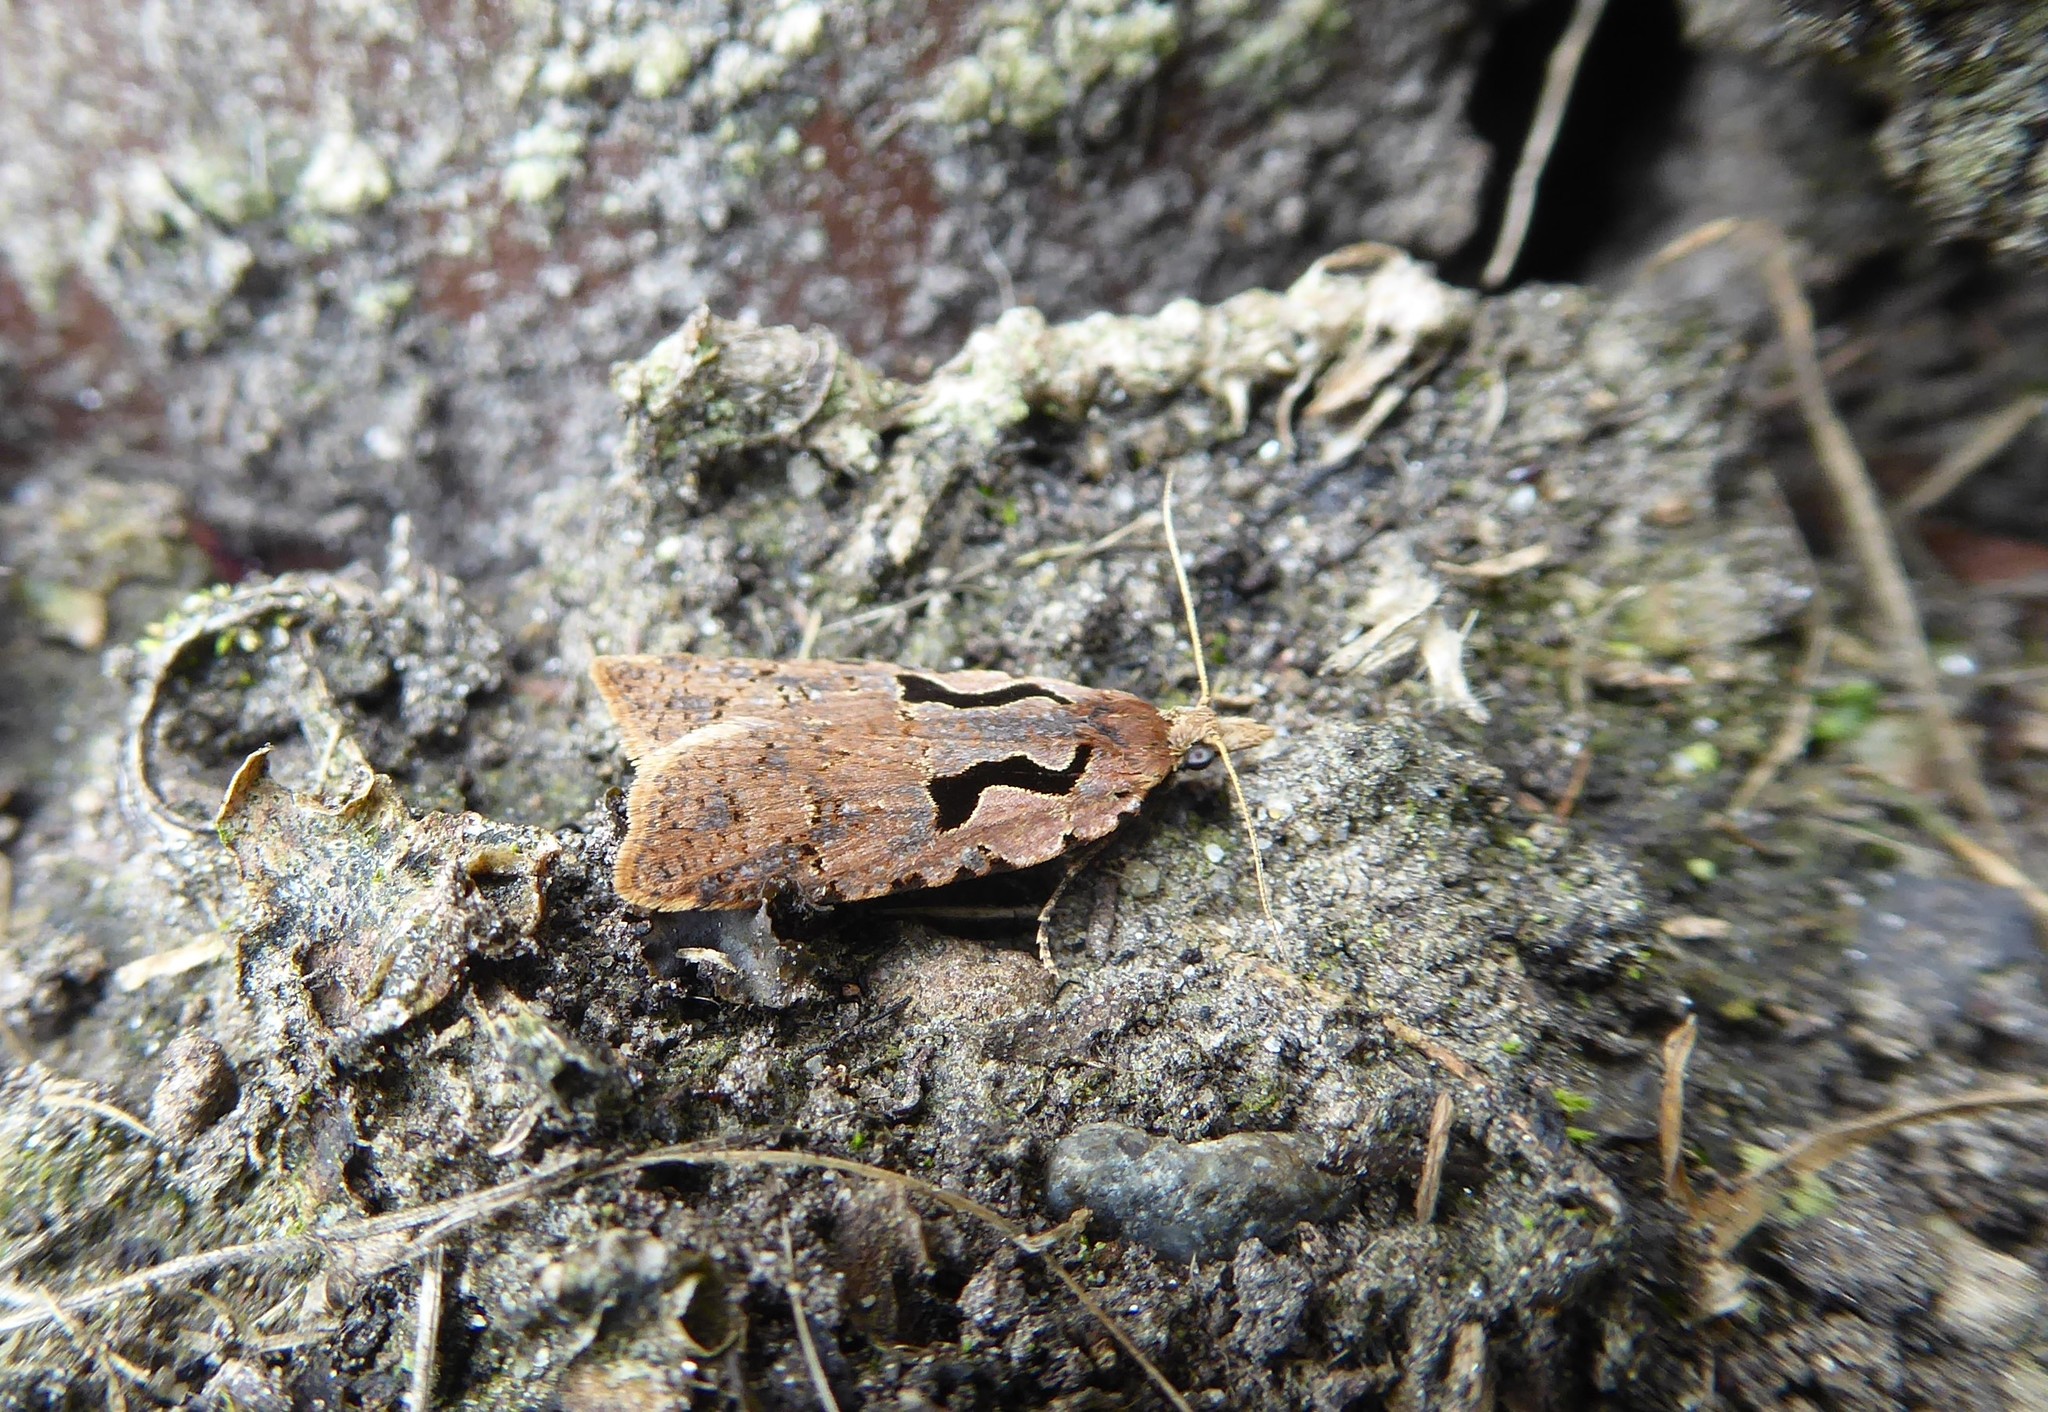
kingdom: Animalia
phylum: Arthropoda
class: Insecta
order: Lepidoptera
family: Tortricidae
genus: Cnephasia
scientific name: Cnephasia jactatana
